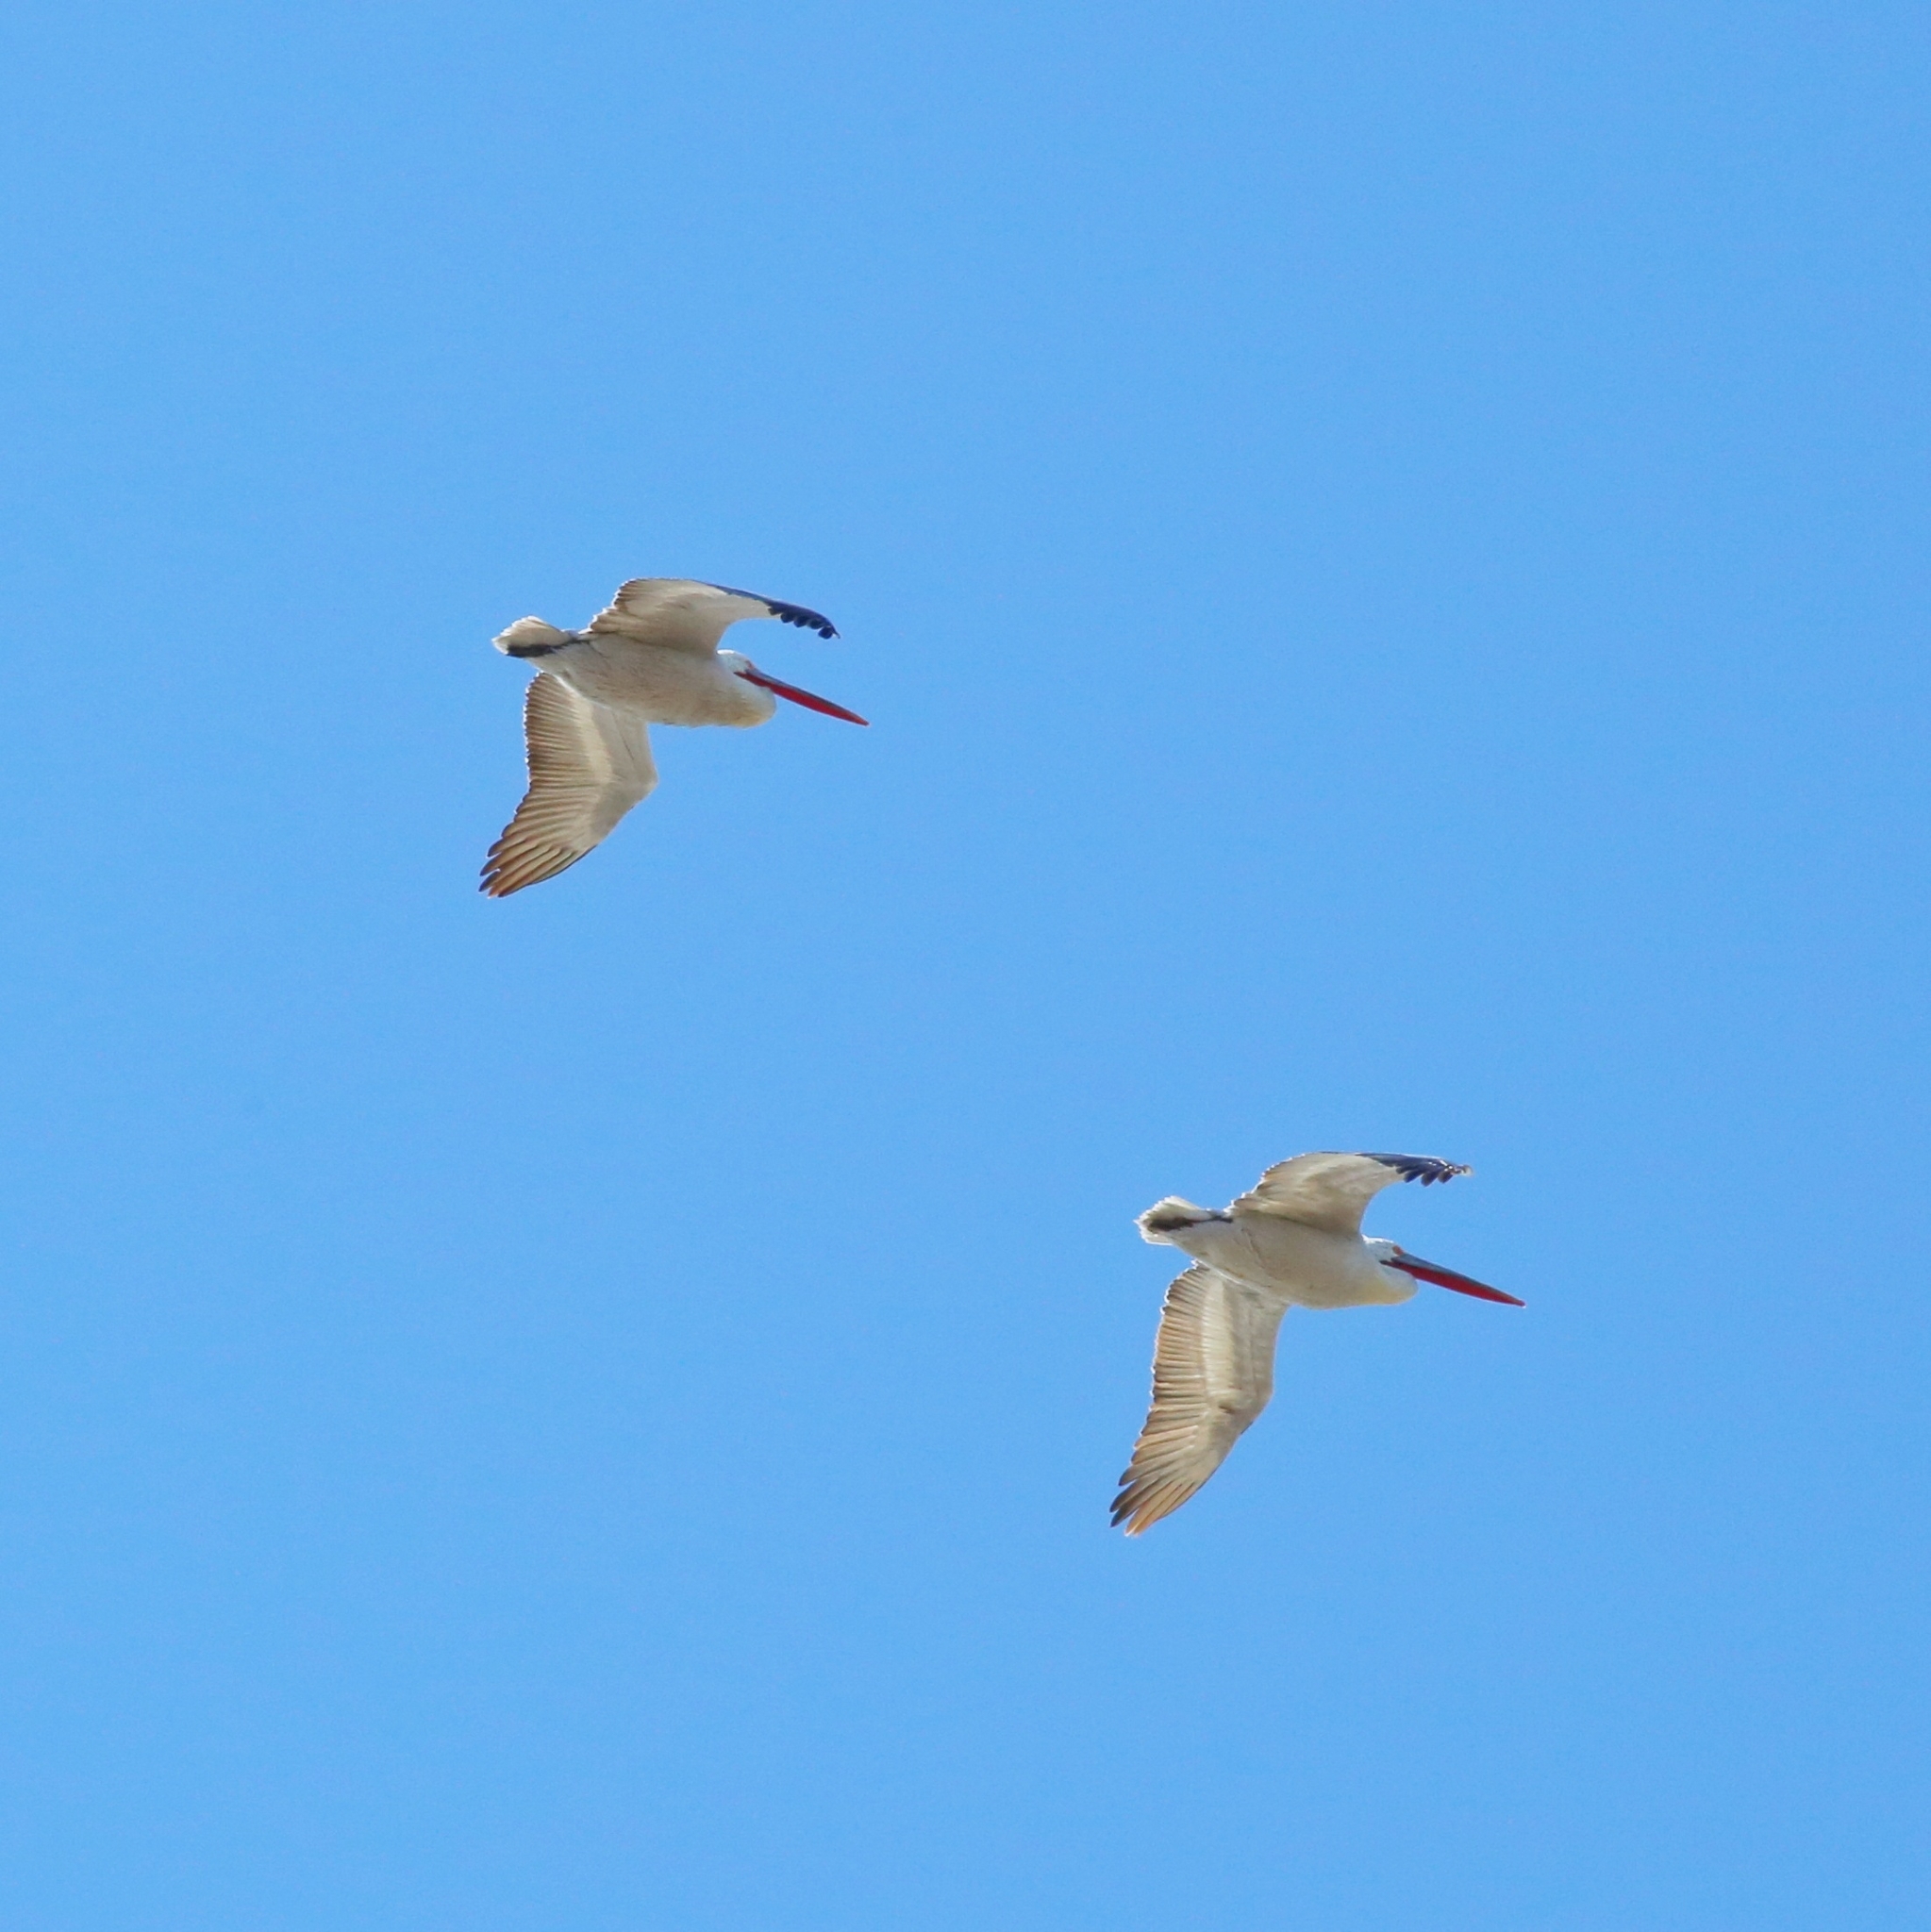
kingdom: Animalia
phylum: Chordata
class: Aves
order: Pelecaniformes
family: Pelecanidae
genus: Pelecanus
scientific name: Pelecanus crispus
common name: Dalmatian pelican
